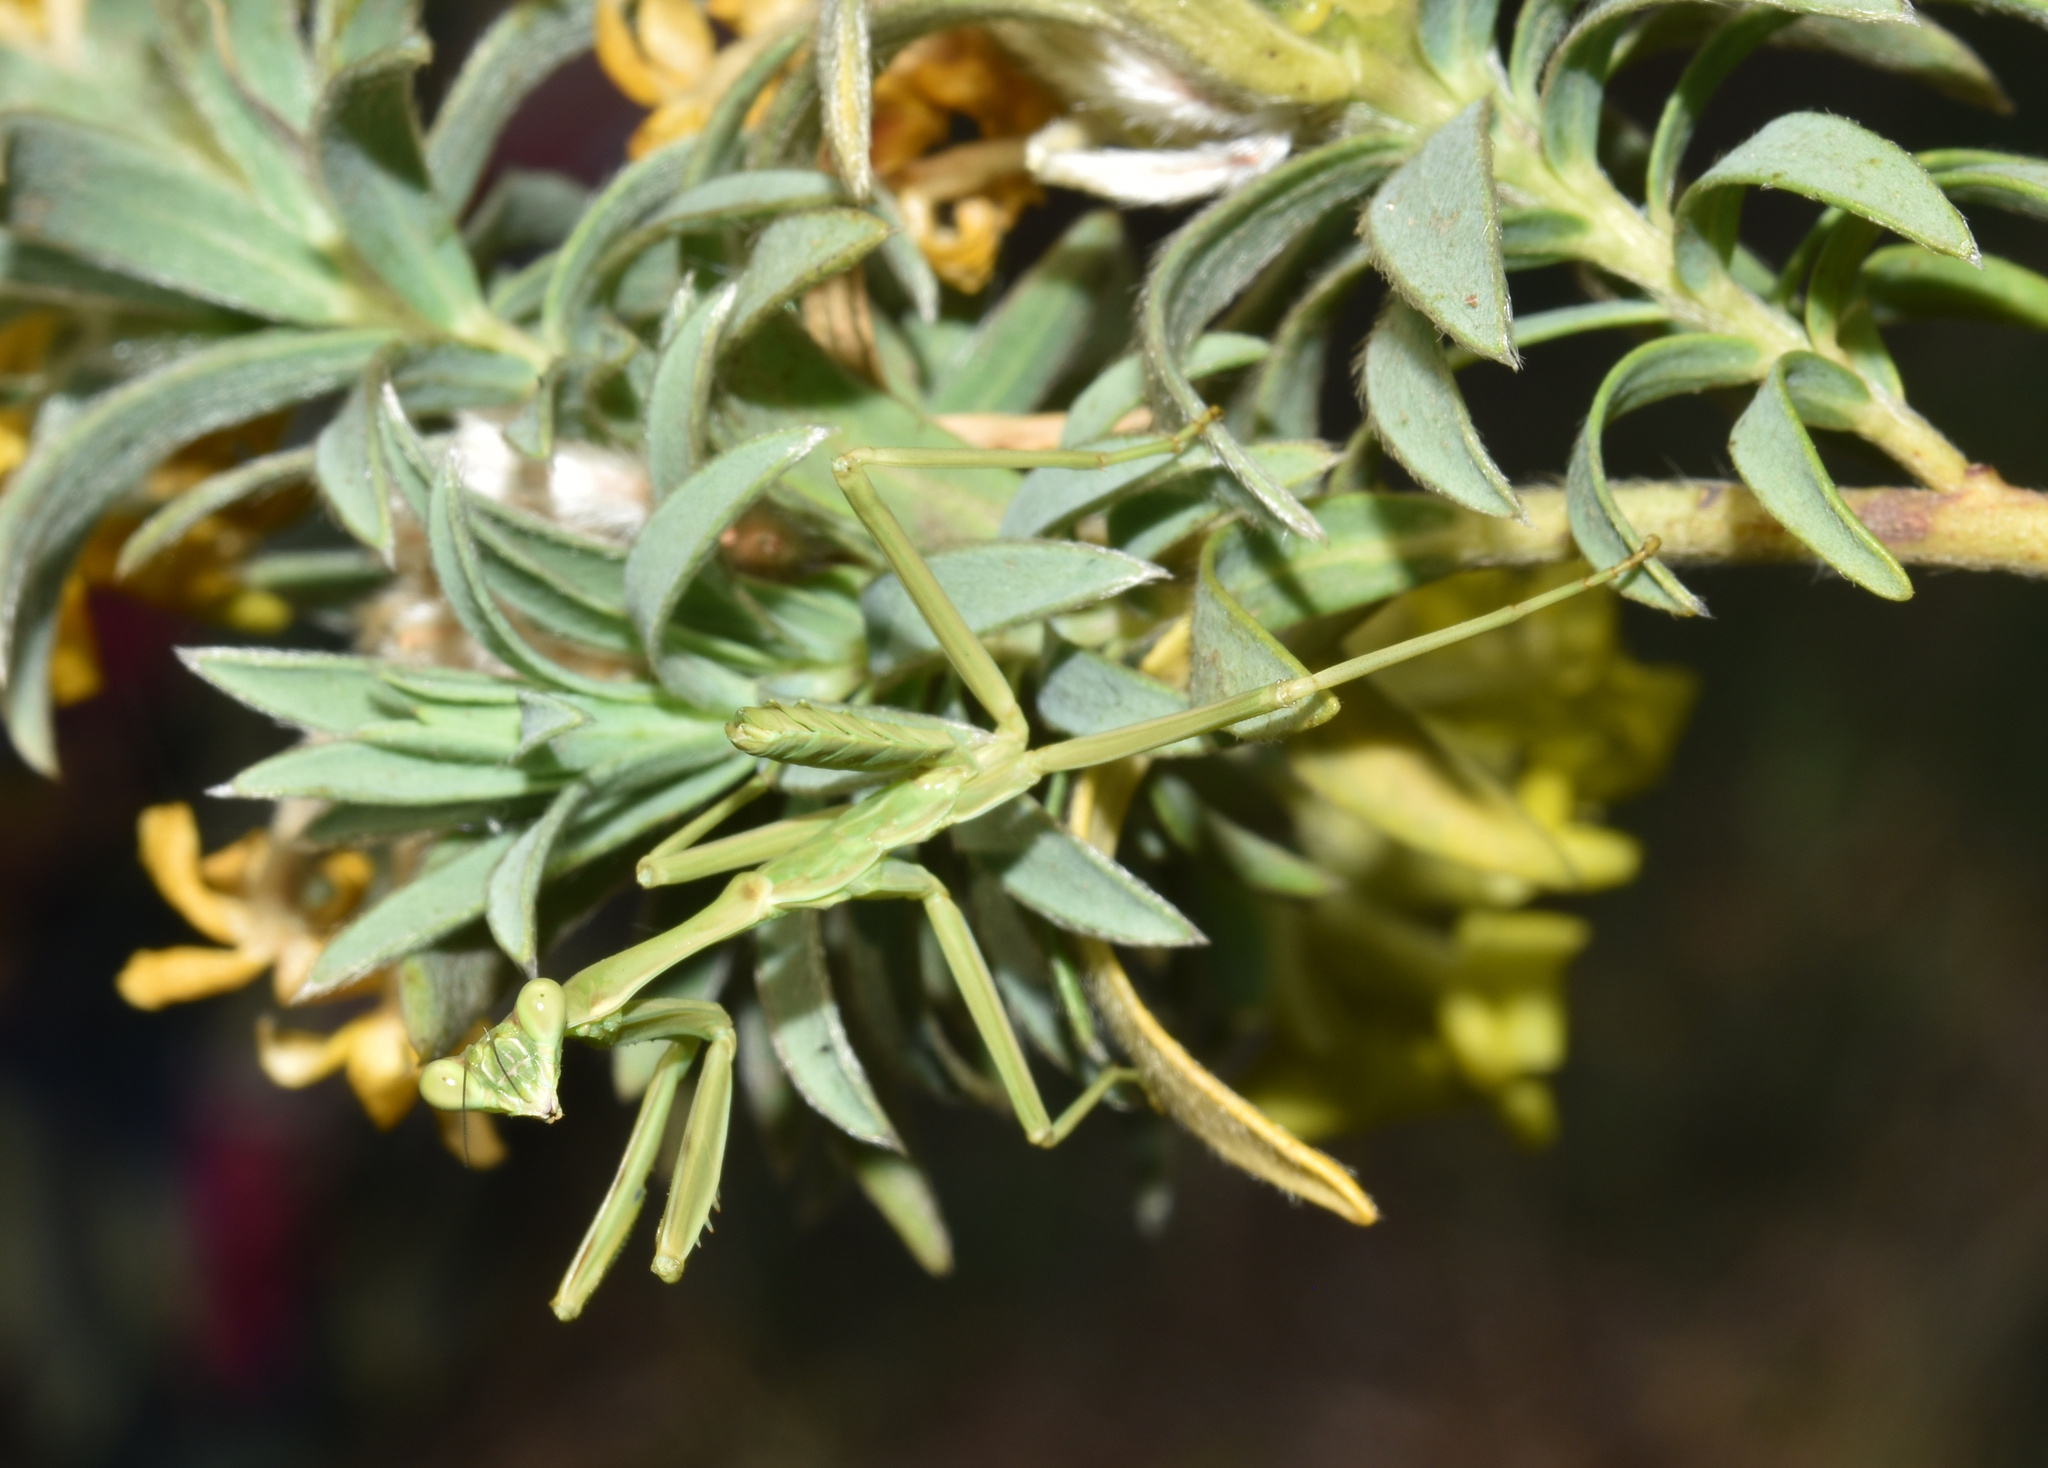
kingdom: Animalia
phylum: Arthropoda
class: Insecta
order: Mantodea
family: Mantidae
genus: Omomantis
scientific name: Omomantis zebrata
